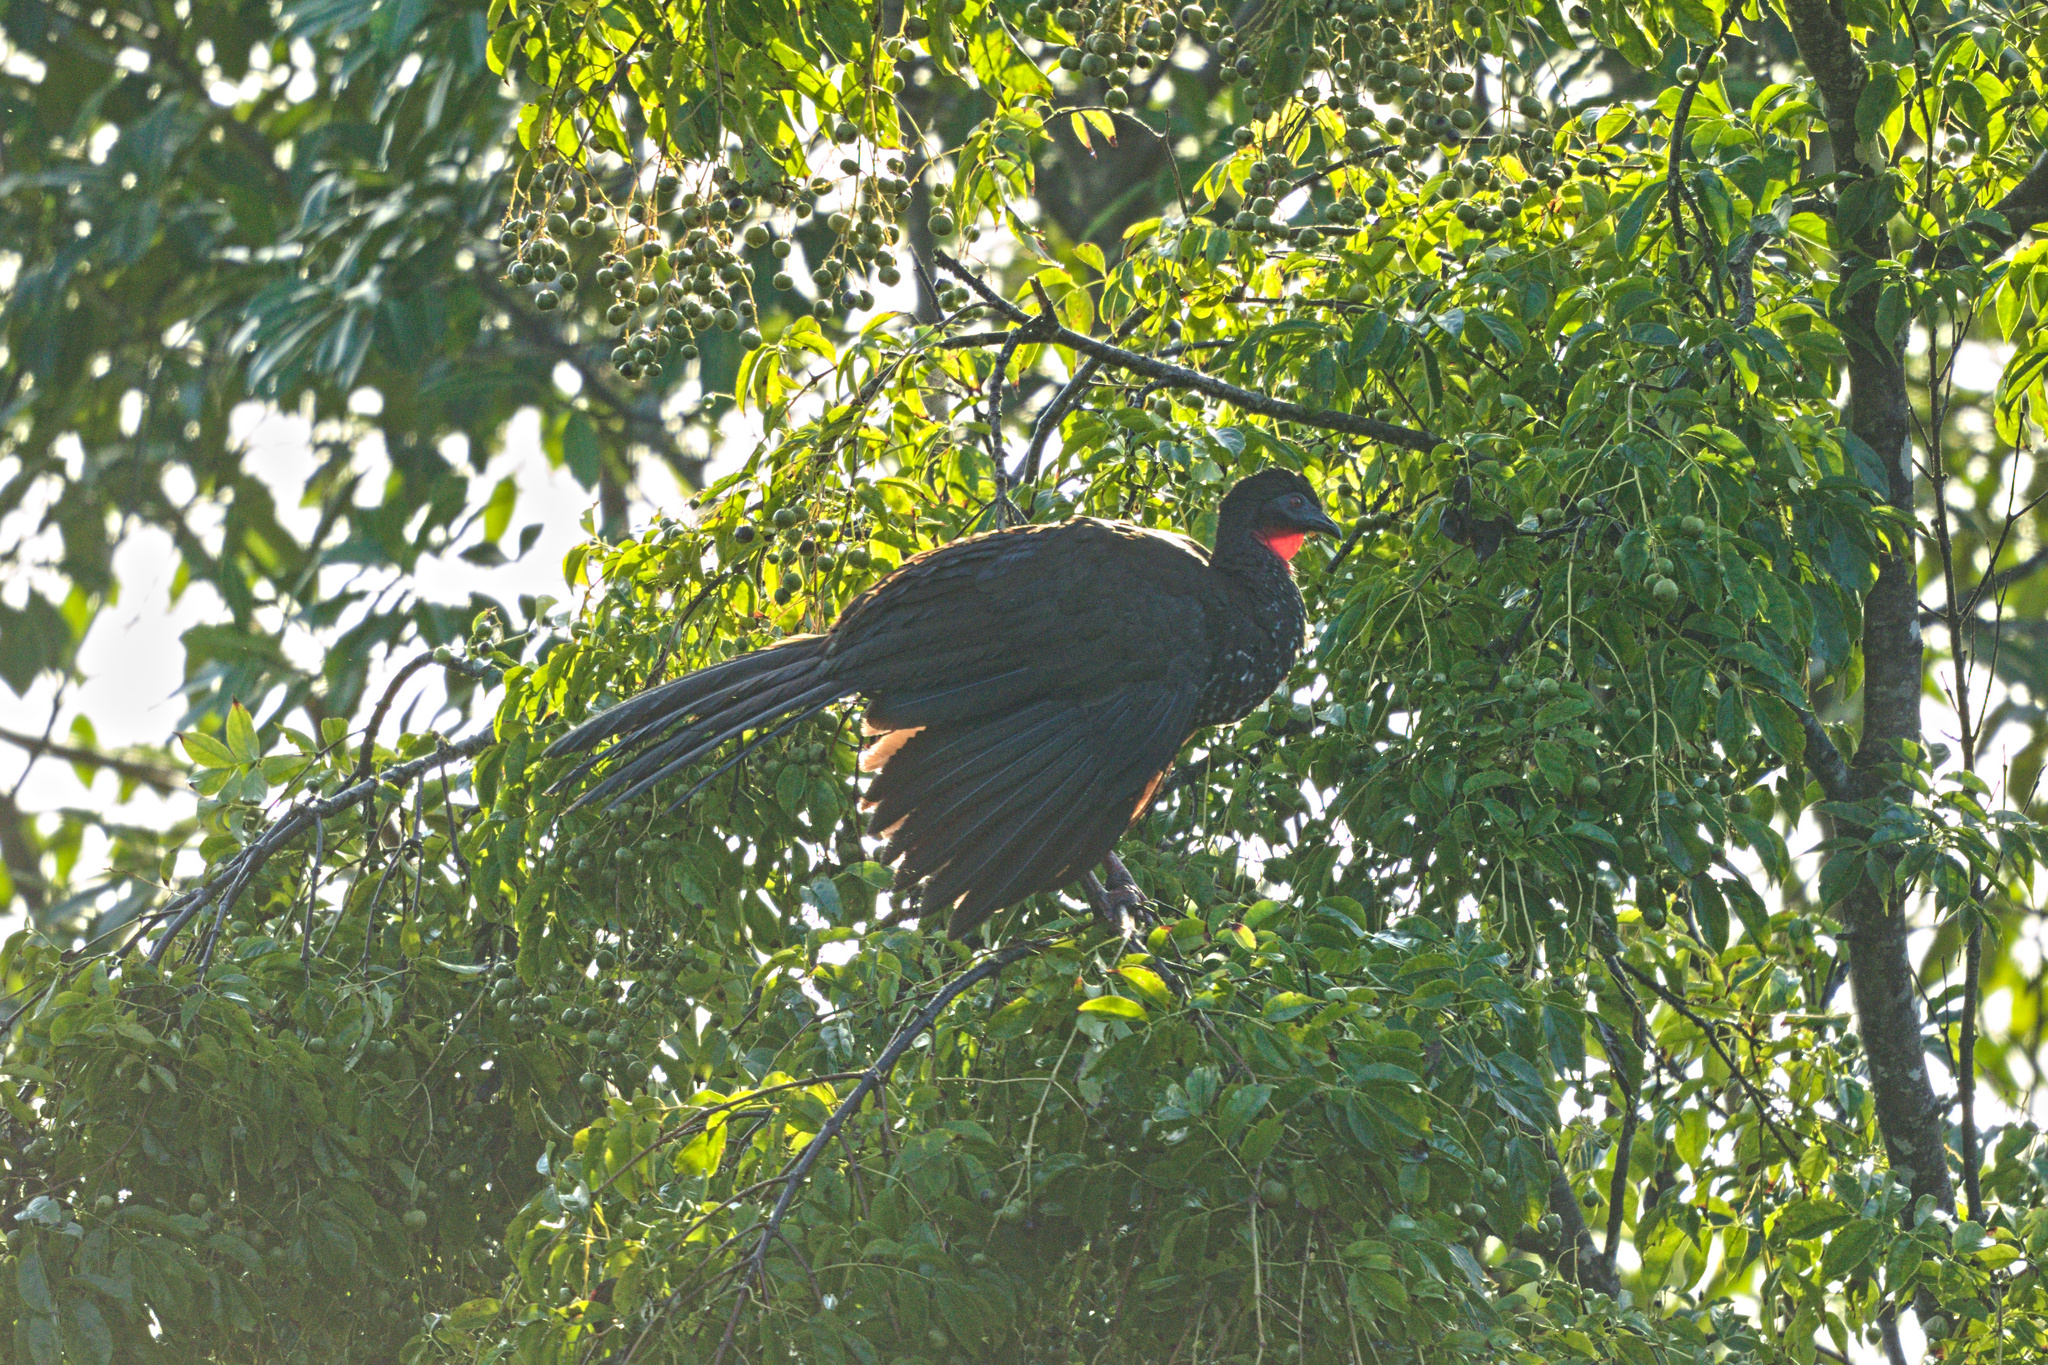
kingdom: Animalia
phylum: Chordata
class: Aves
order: Galliformes
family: Cracidae
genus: Penelope
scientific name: Penelope purpurascens
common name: Crested guan
